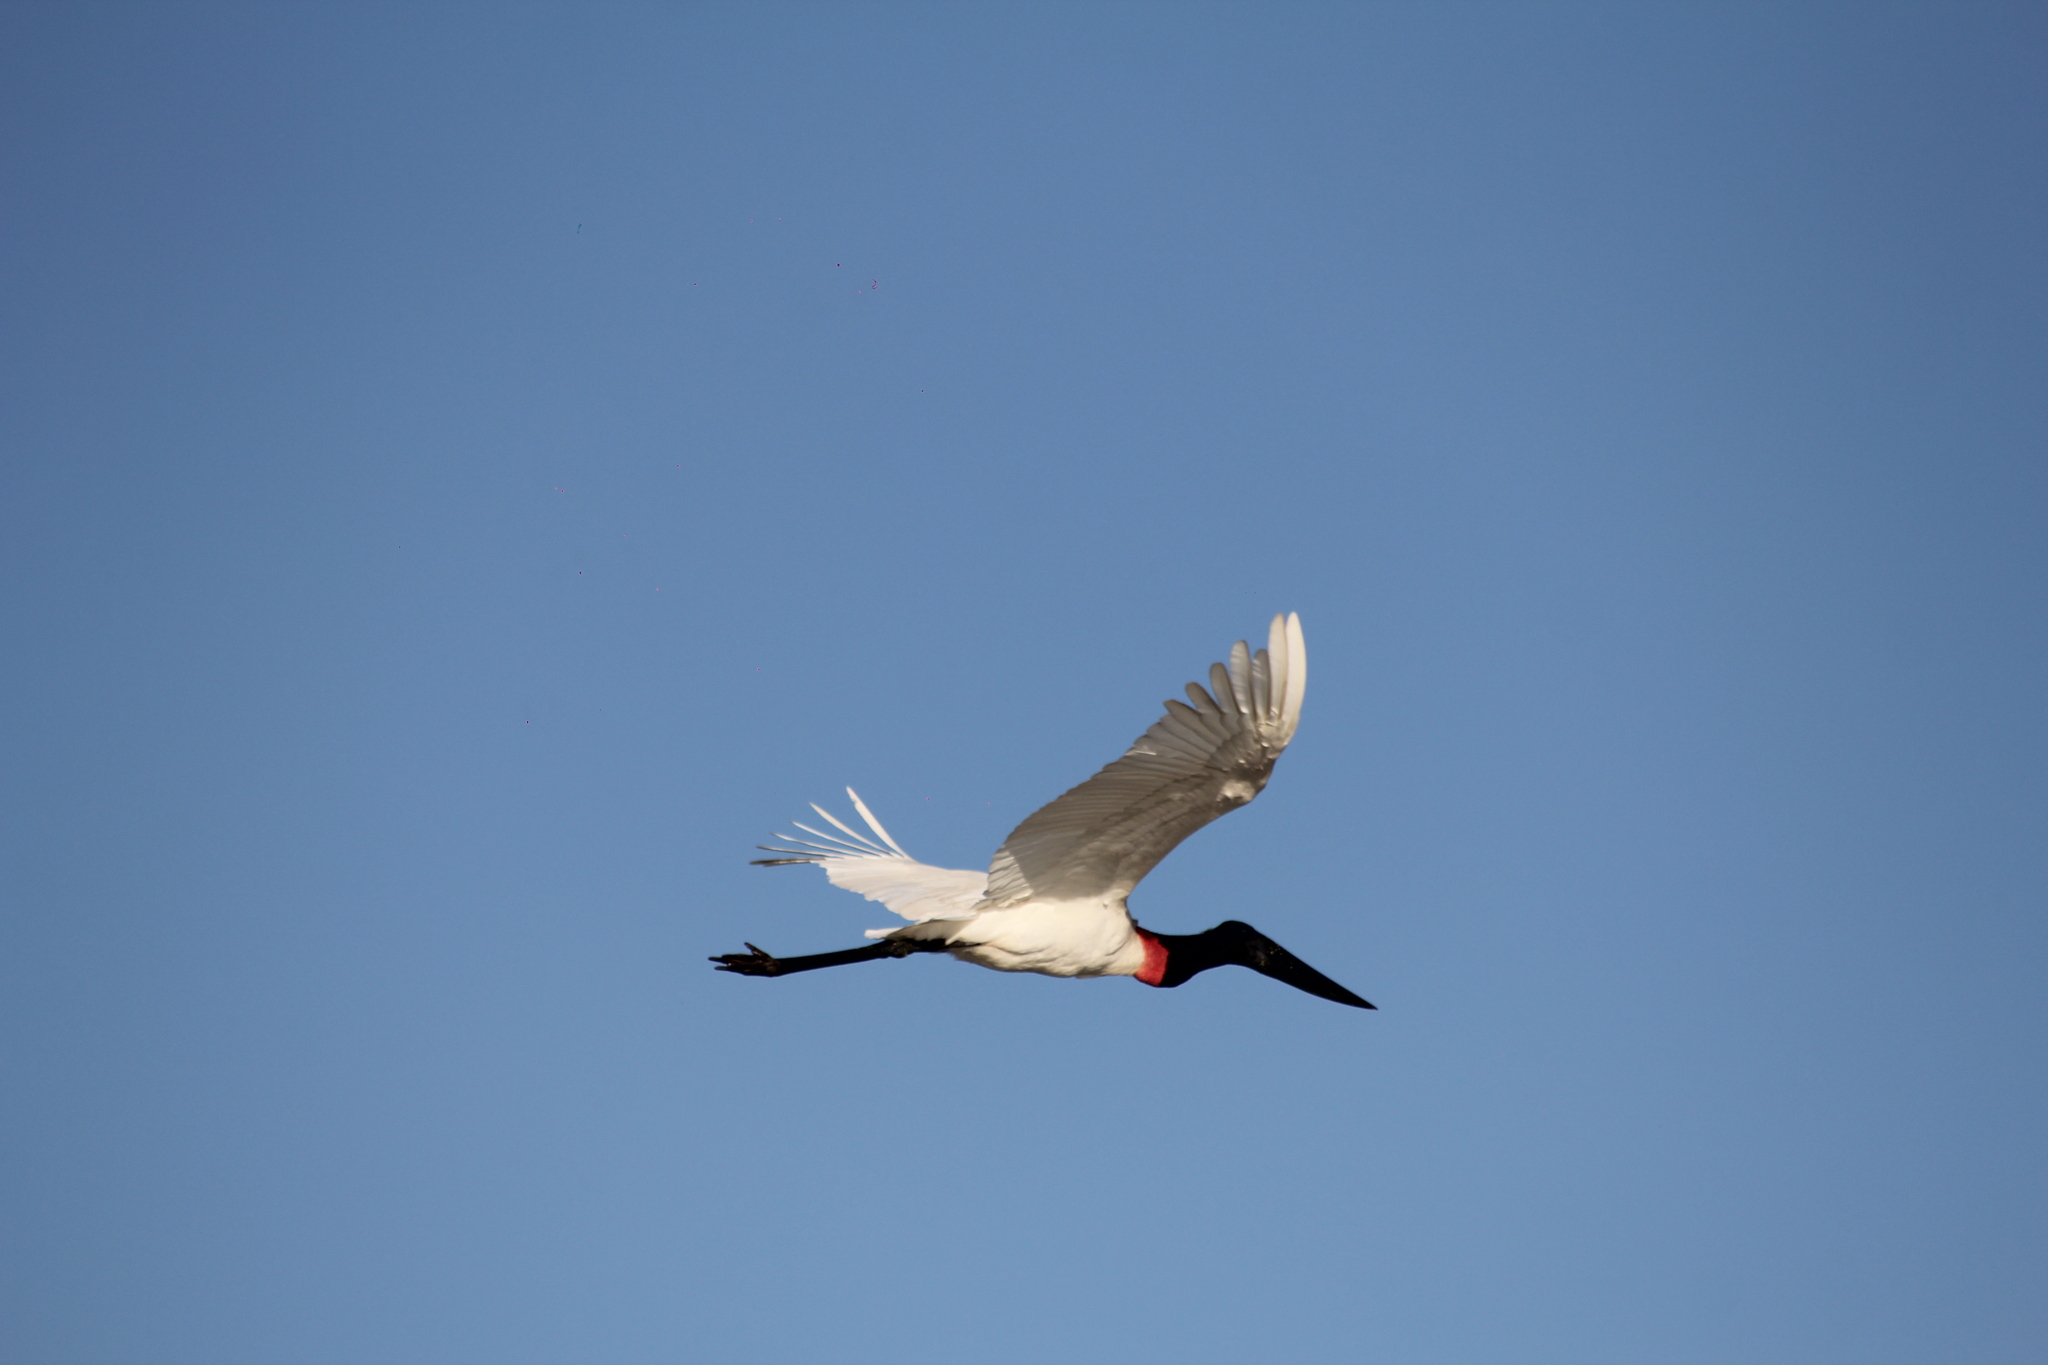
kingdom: Animalia
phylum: Chordata
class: Aves
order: Ciconiiformes
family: Ciconiidae
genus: Jabiru
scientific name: Jabiru mycteria
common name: Jabiru
